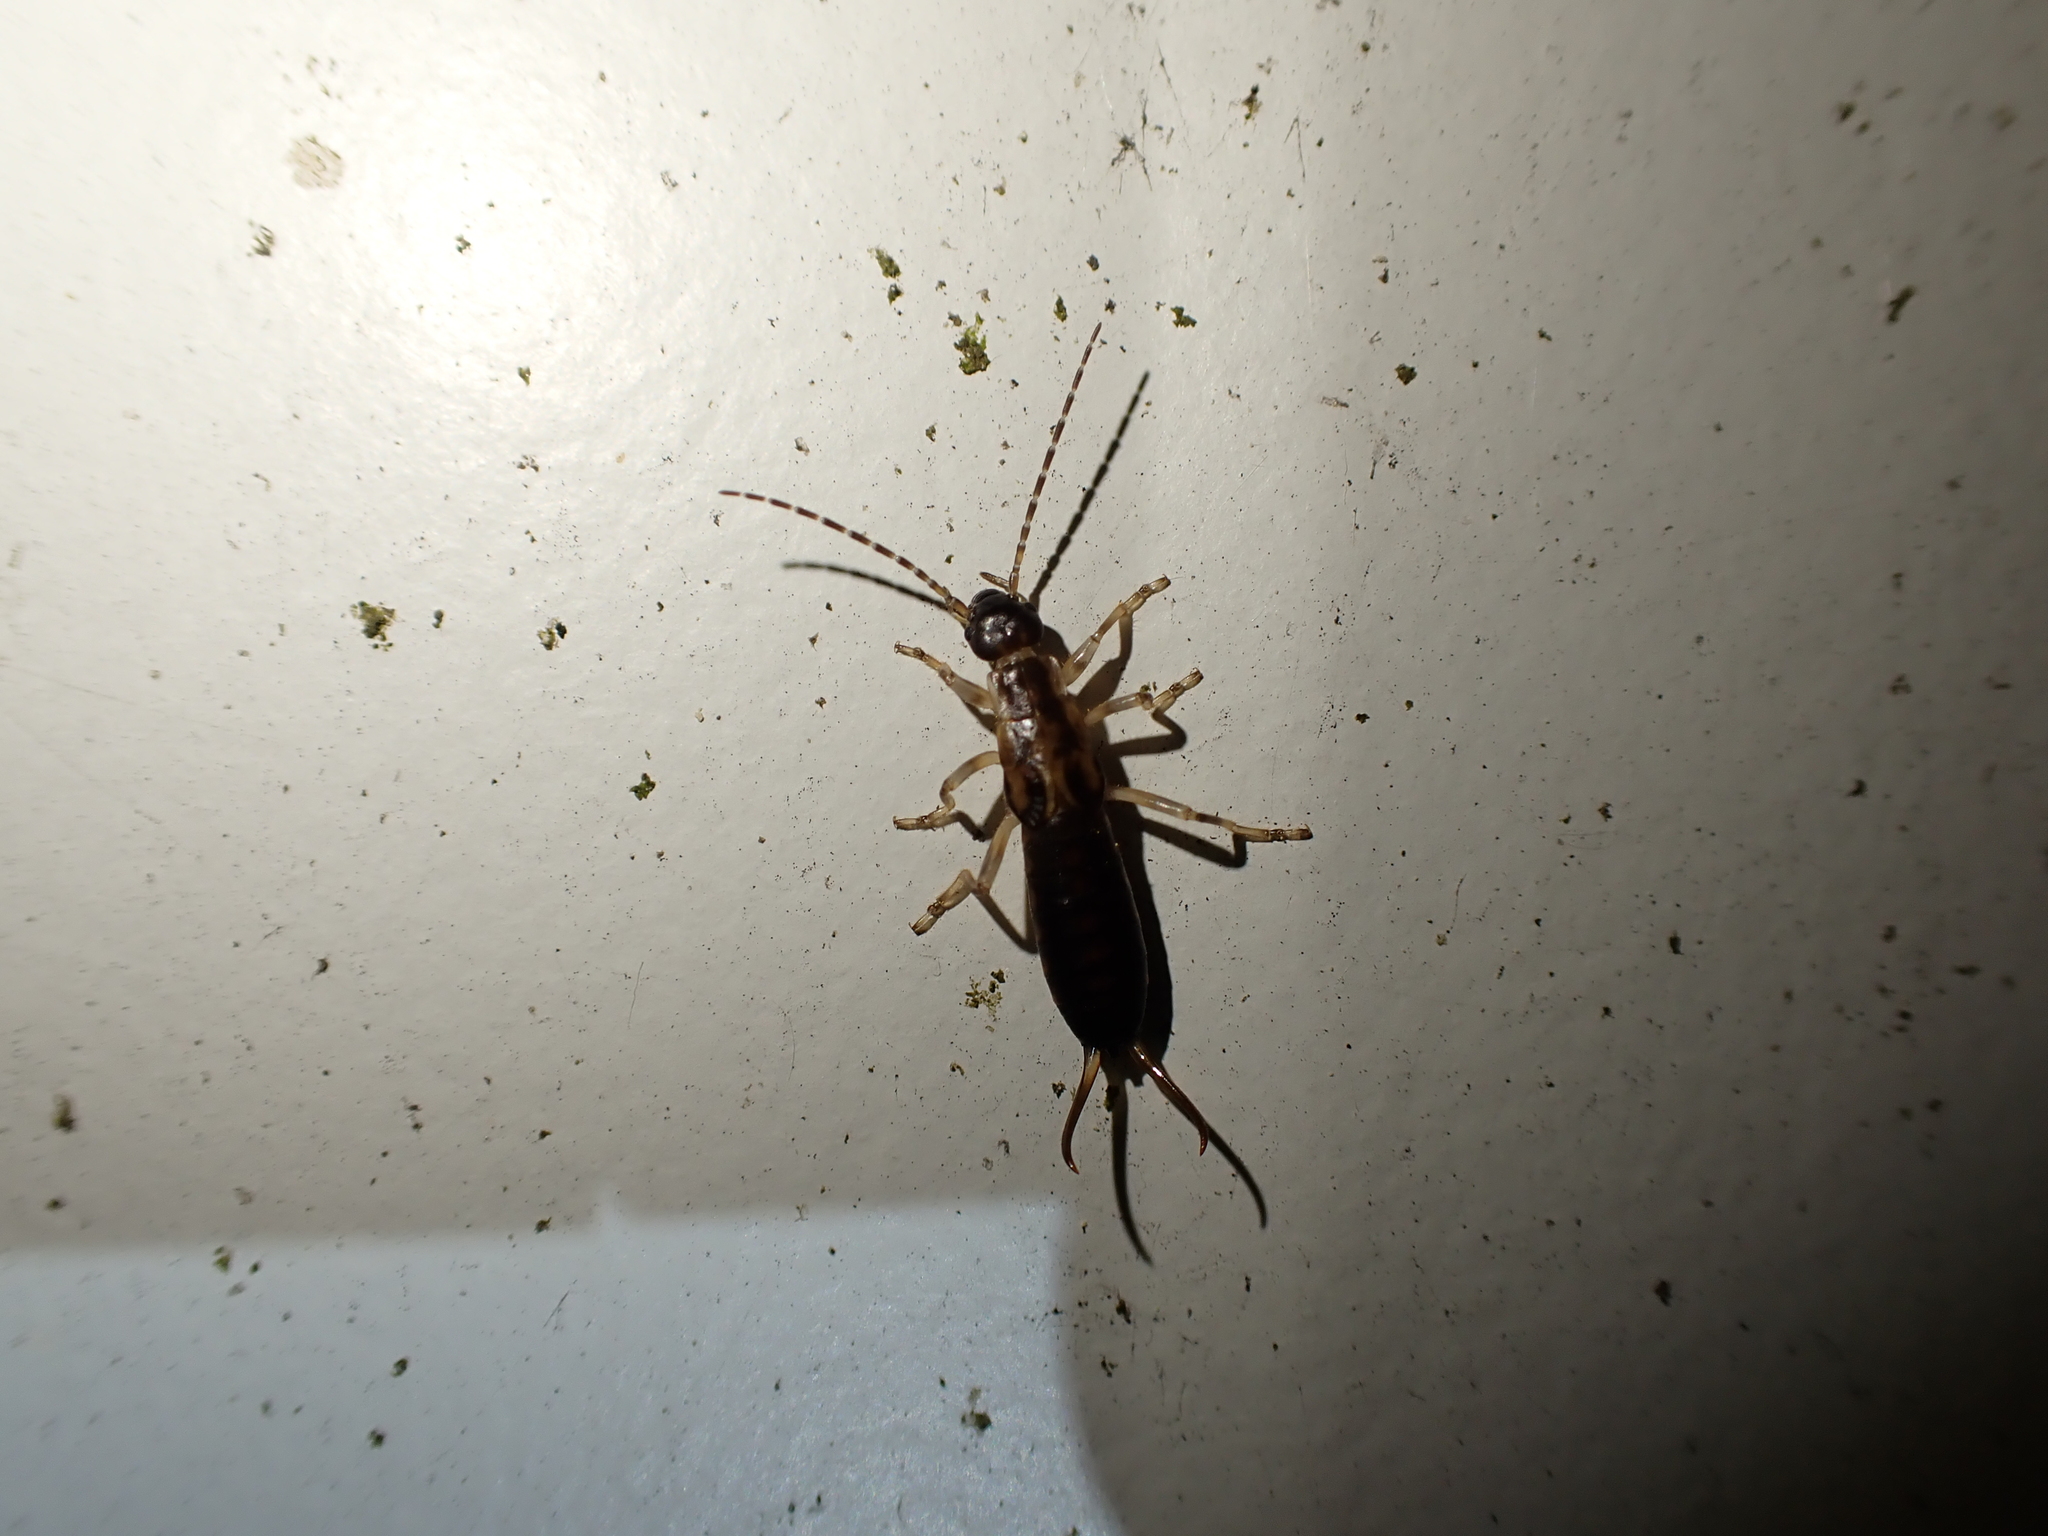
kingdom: Animalia
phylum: Arthropoda
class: Insecta
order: Dermaptera
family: Forficulidae
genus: Forficula
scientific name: Forficula
